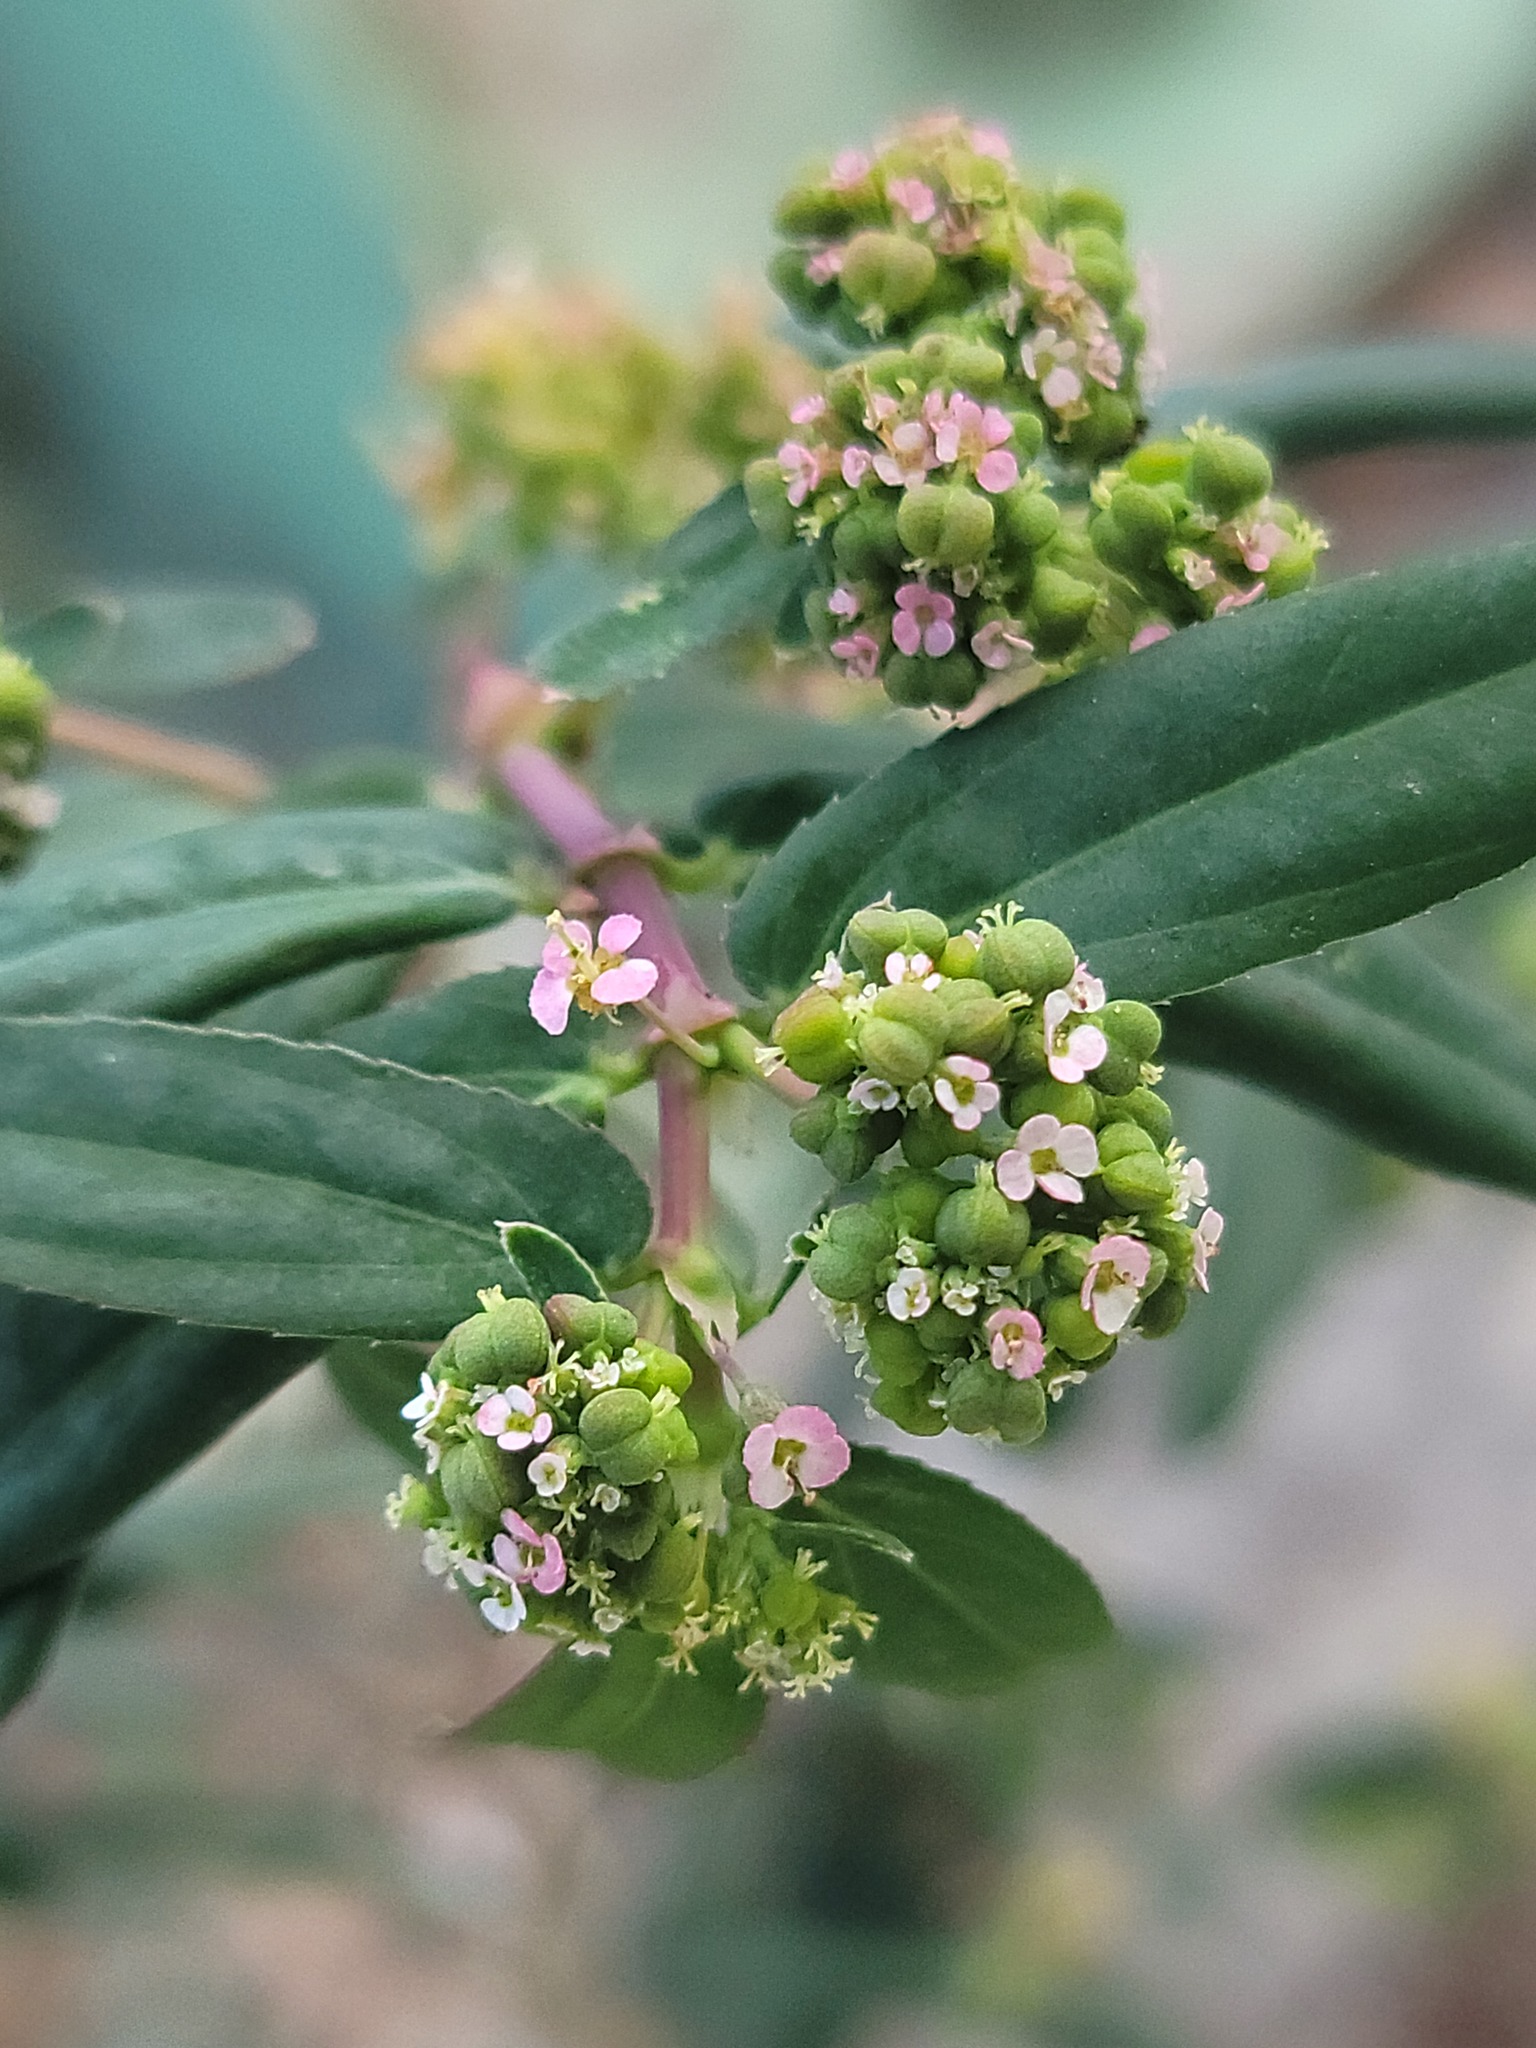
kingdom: Plantae
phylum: Tracheophyta
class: Magnoliopsida
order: Malpighiales
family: Euphorbiaceae
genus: Euphorbia
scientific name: Euphorbia hypericifolia
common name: Graceful sandmat
